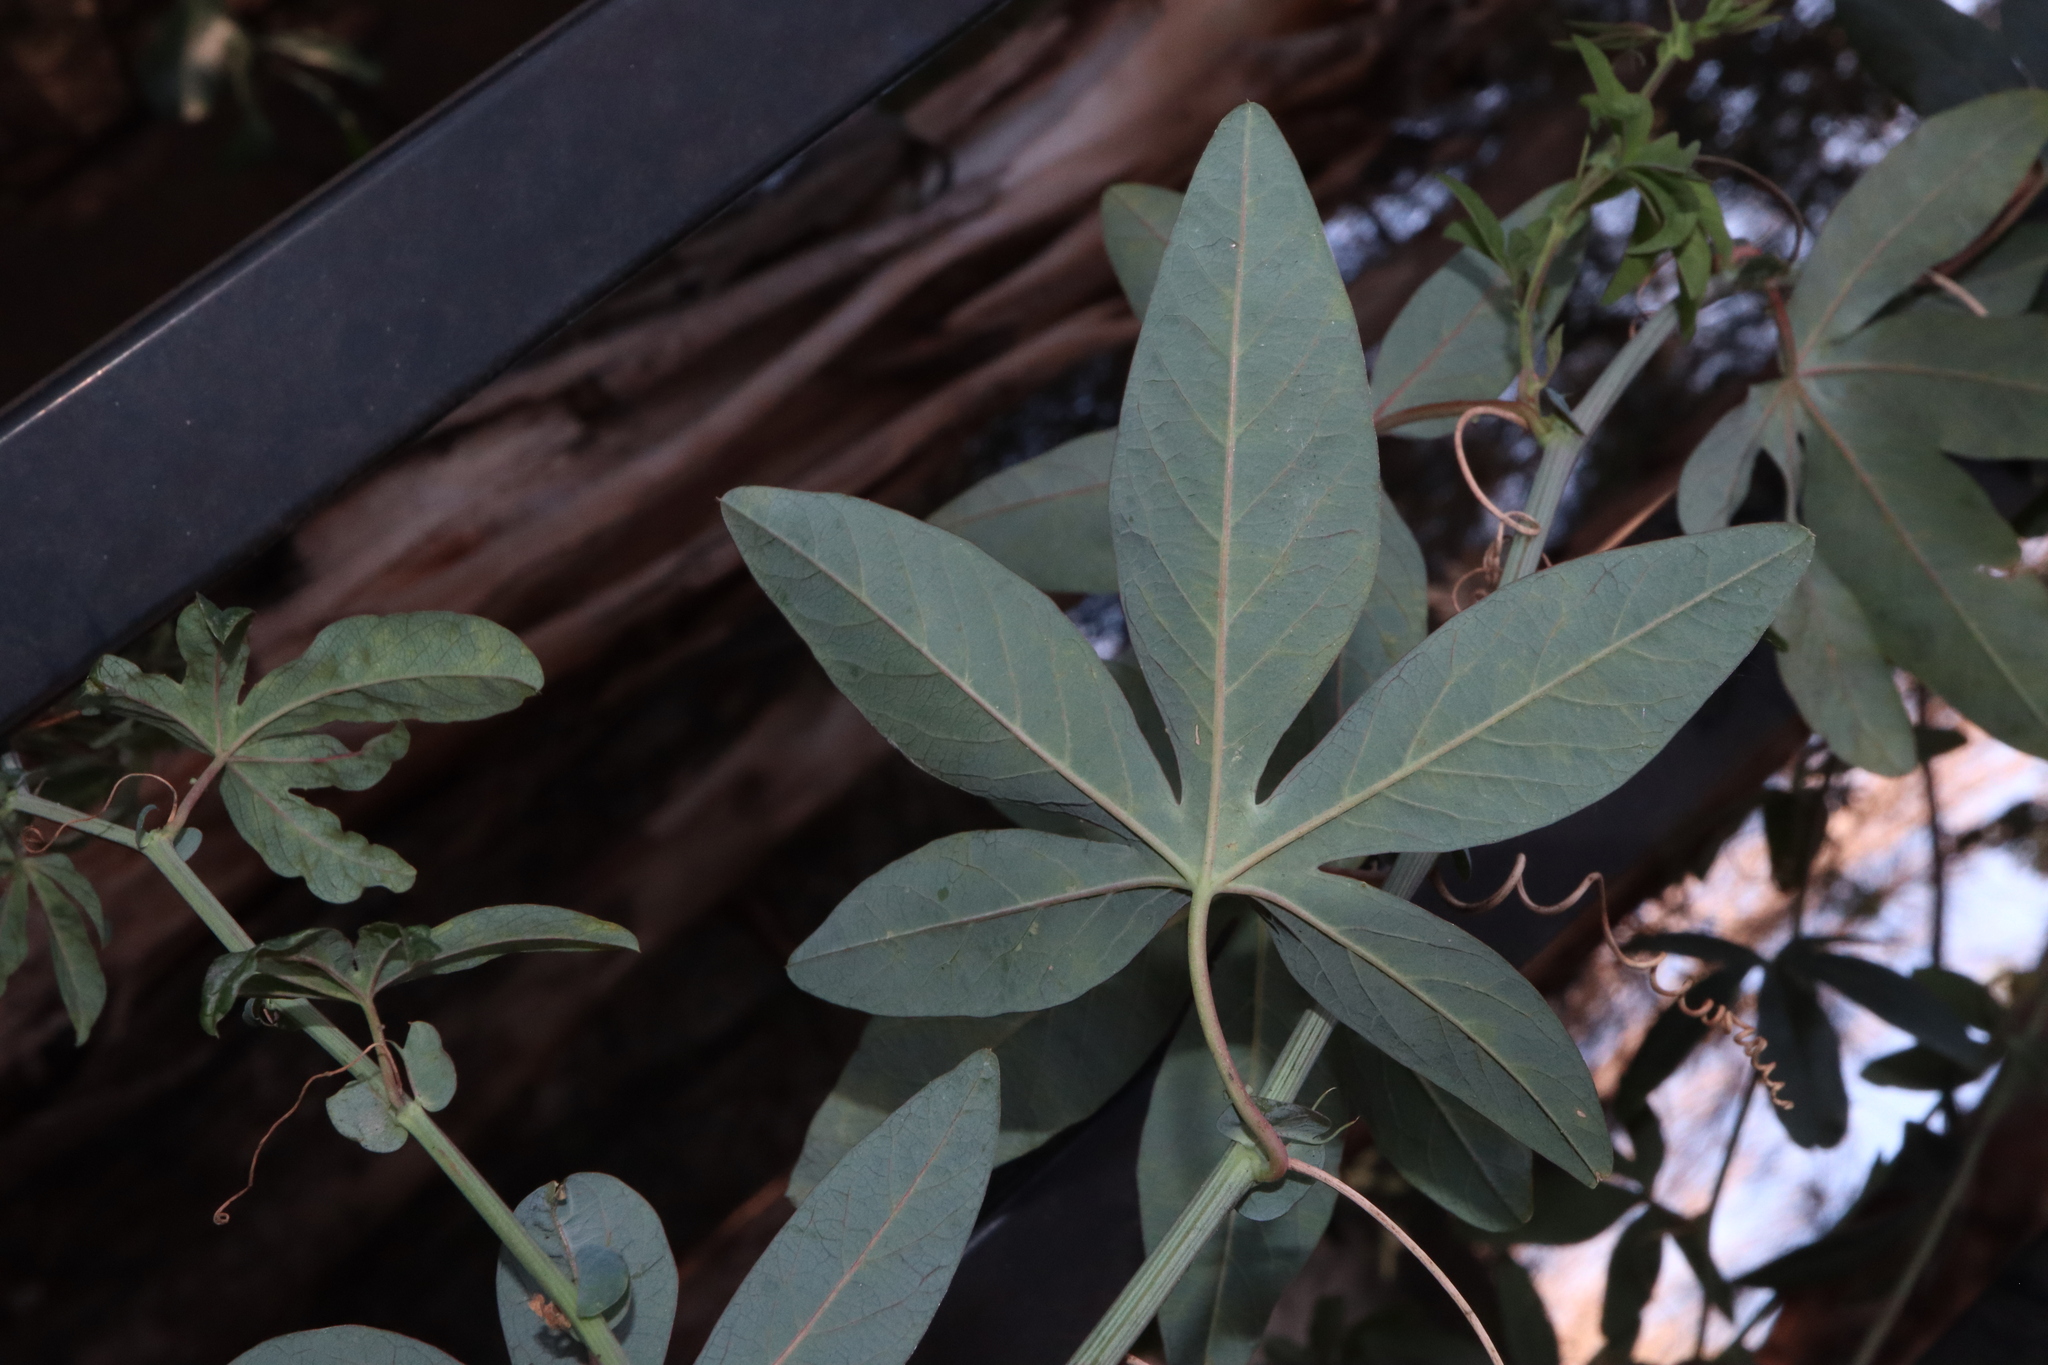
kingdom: Plantae
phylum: Tracheophyta
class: Magnoliopsida
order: Malpighiales
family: Passifloraceae
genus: Passiflora
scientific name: Passiflora caerulea
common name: Blue passionflower
